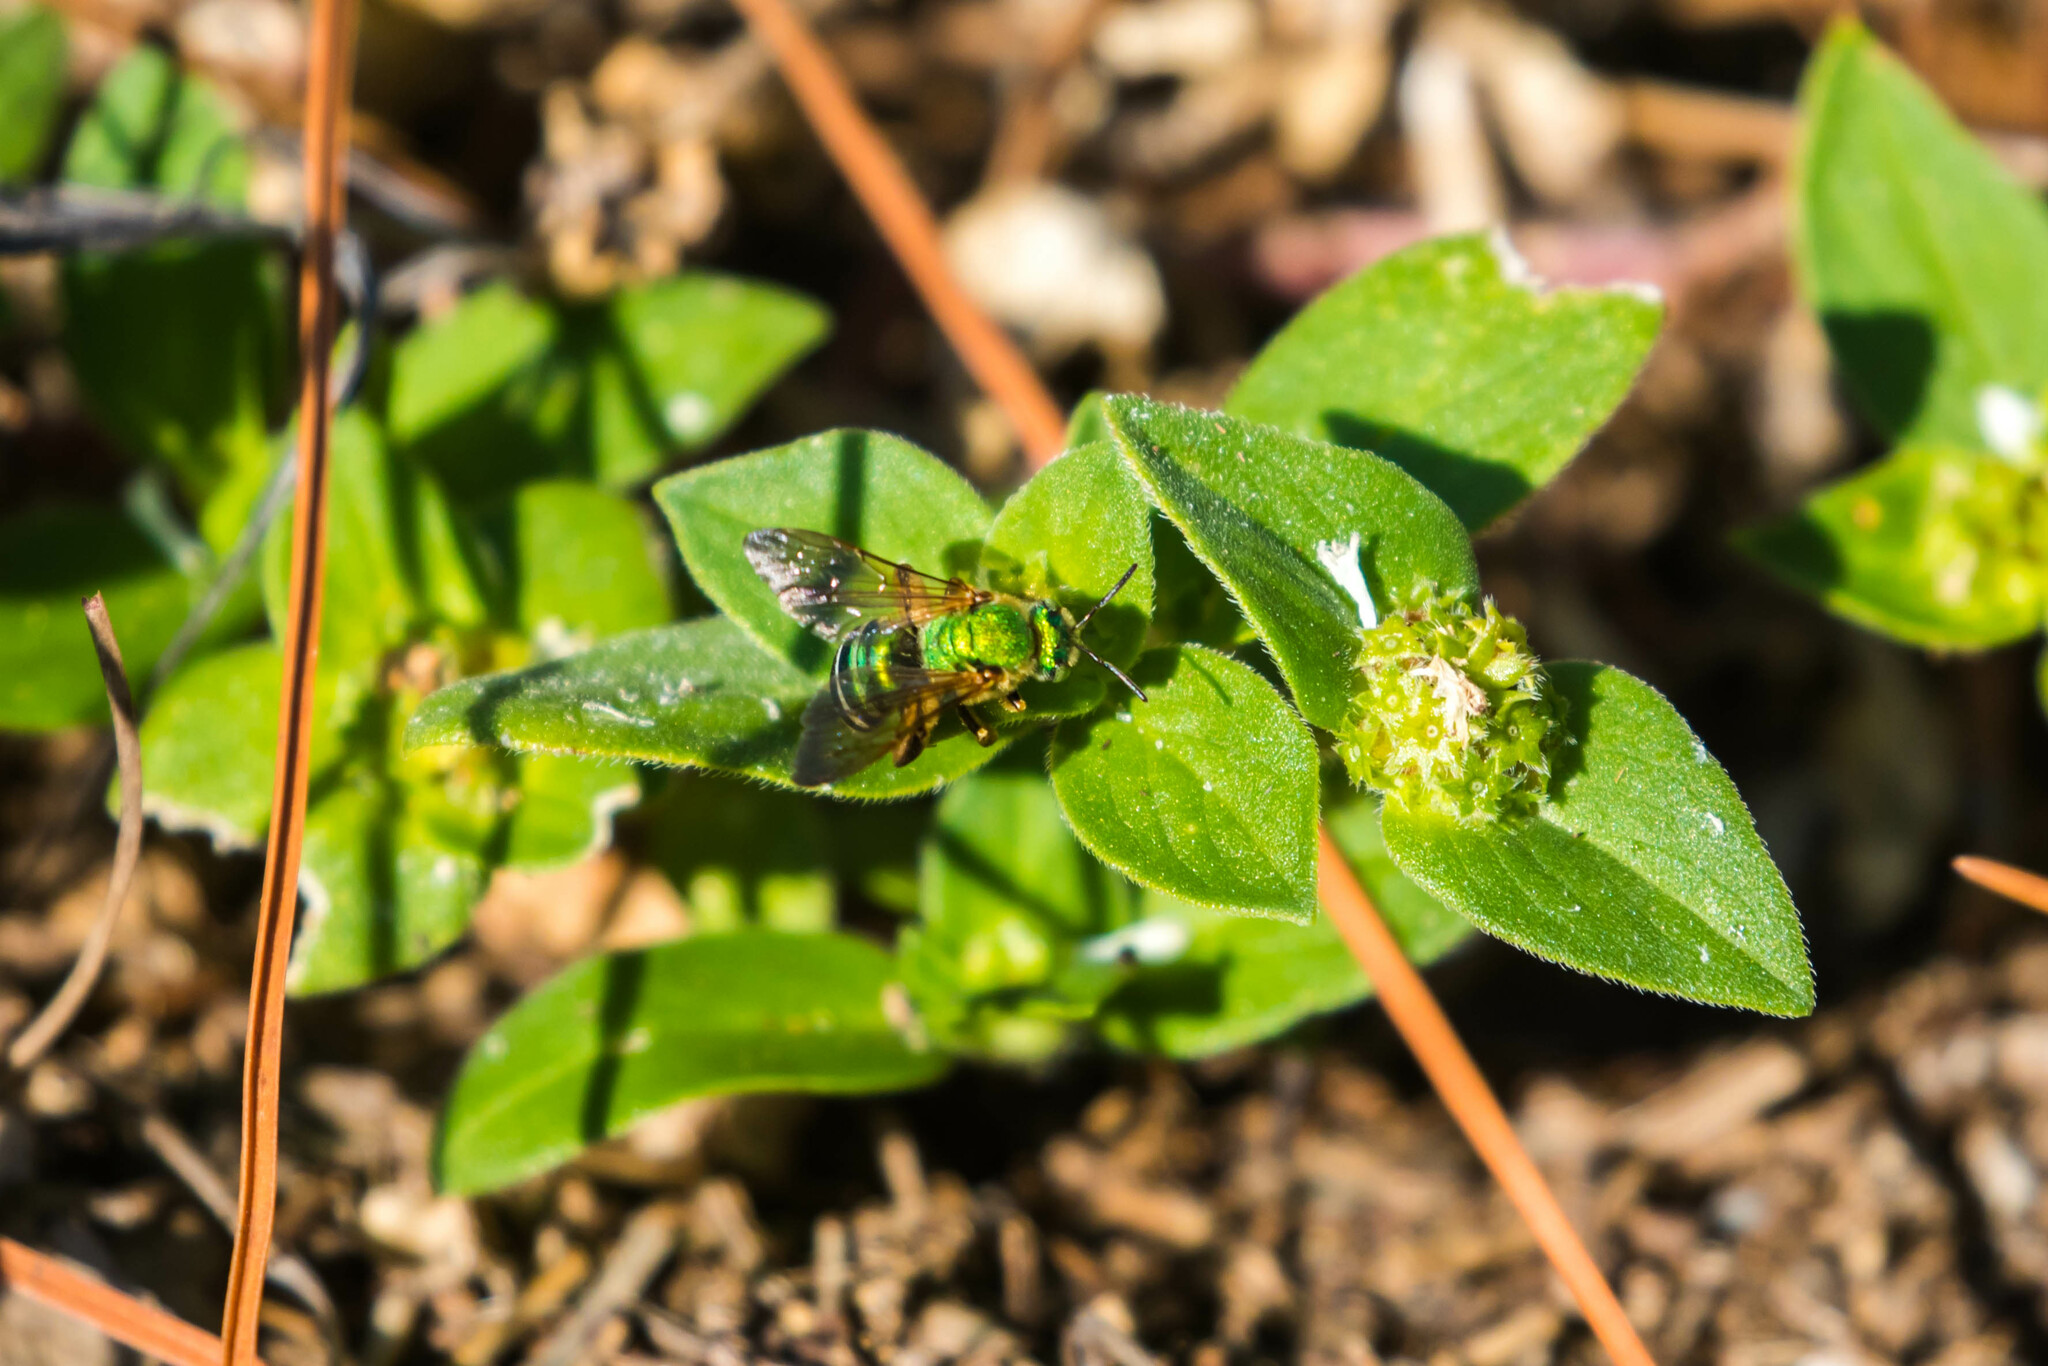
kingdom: Animalia
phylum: Arthropoda
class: Insecta
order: Hymenoptera
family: Halictidae
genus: Agapostemon
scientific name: Agapostemon splendens
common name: Brown-winged striped sweat bee
